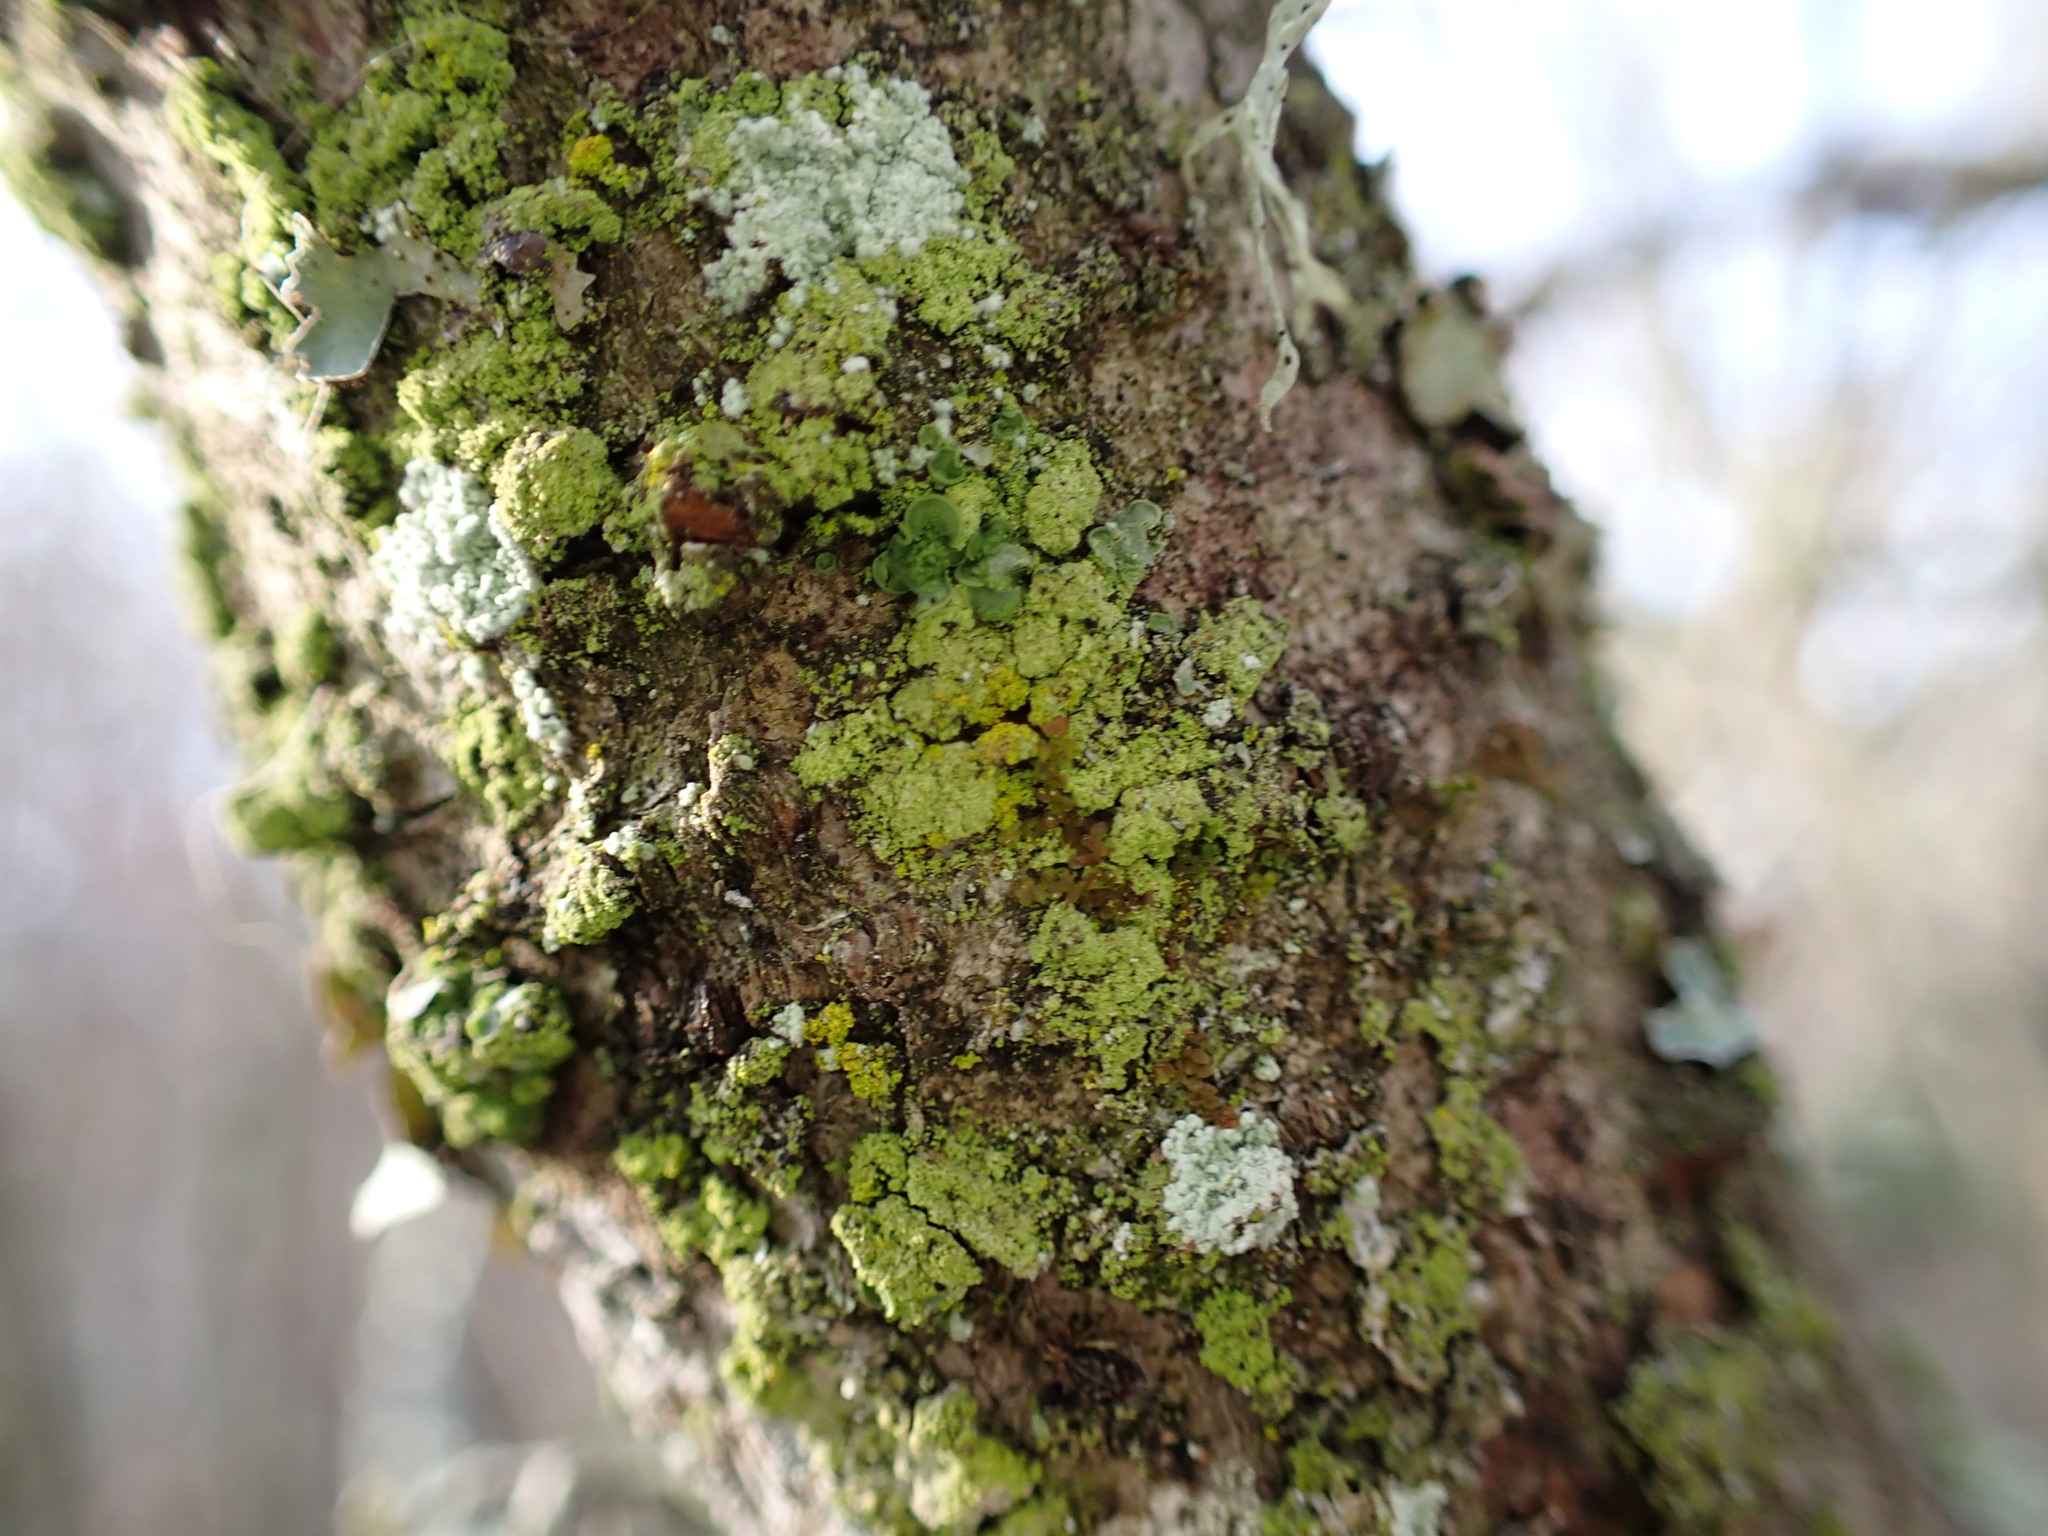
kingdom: Fungi
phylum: Ascomycota
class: Eurotiomycetes
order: Verrucariales
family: Verrucariaceae
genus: Normandina
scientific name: Normandina pulchella
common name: Elf ears lichen
